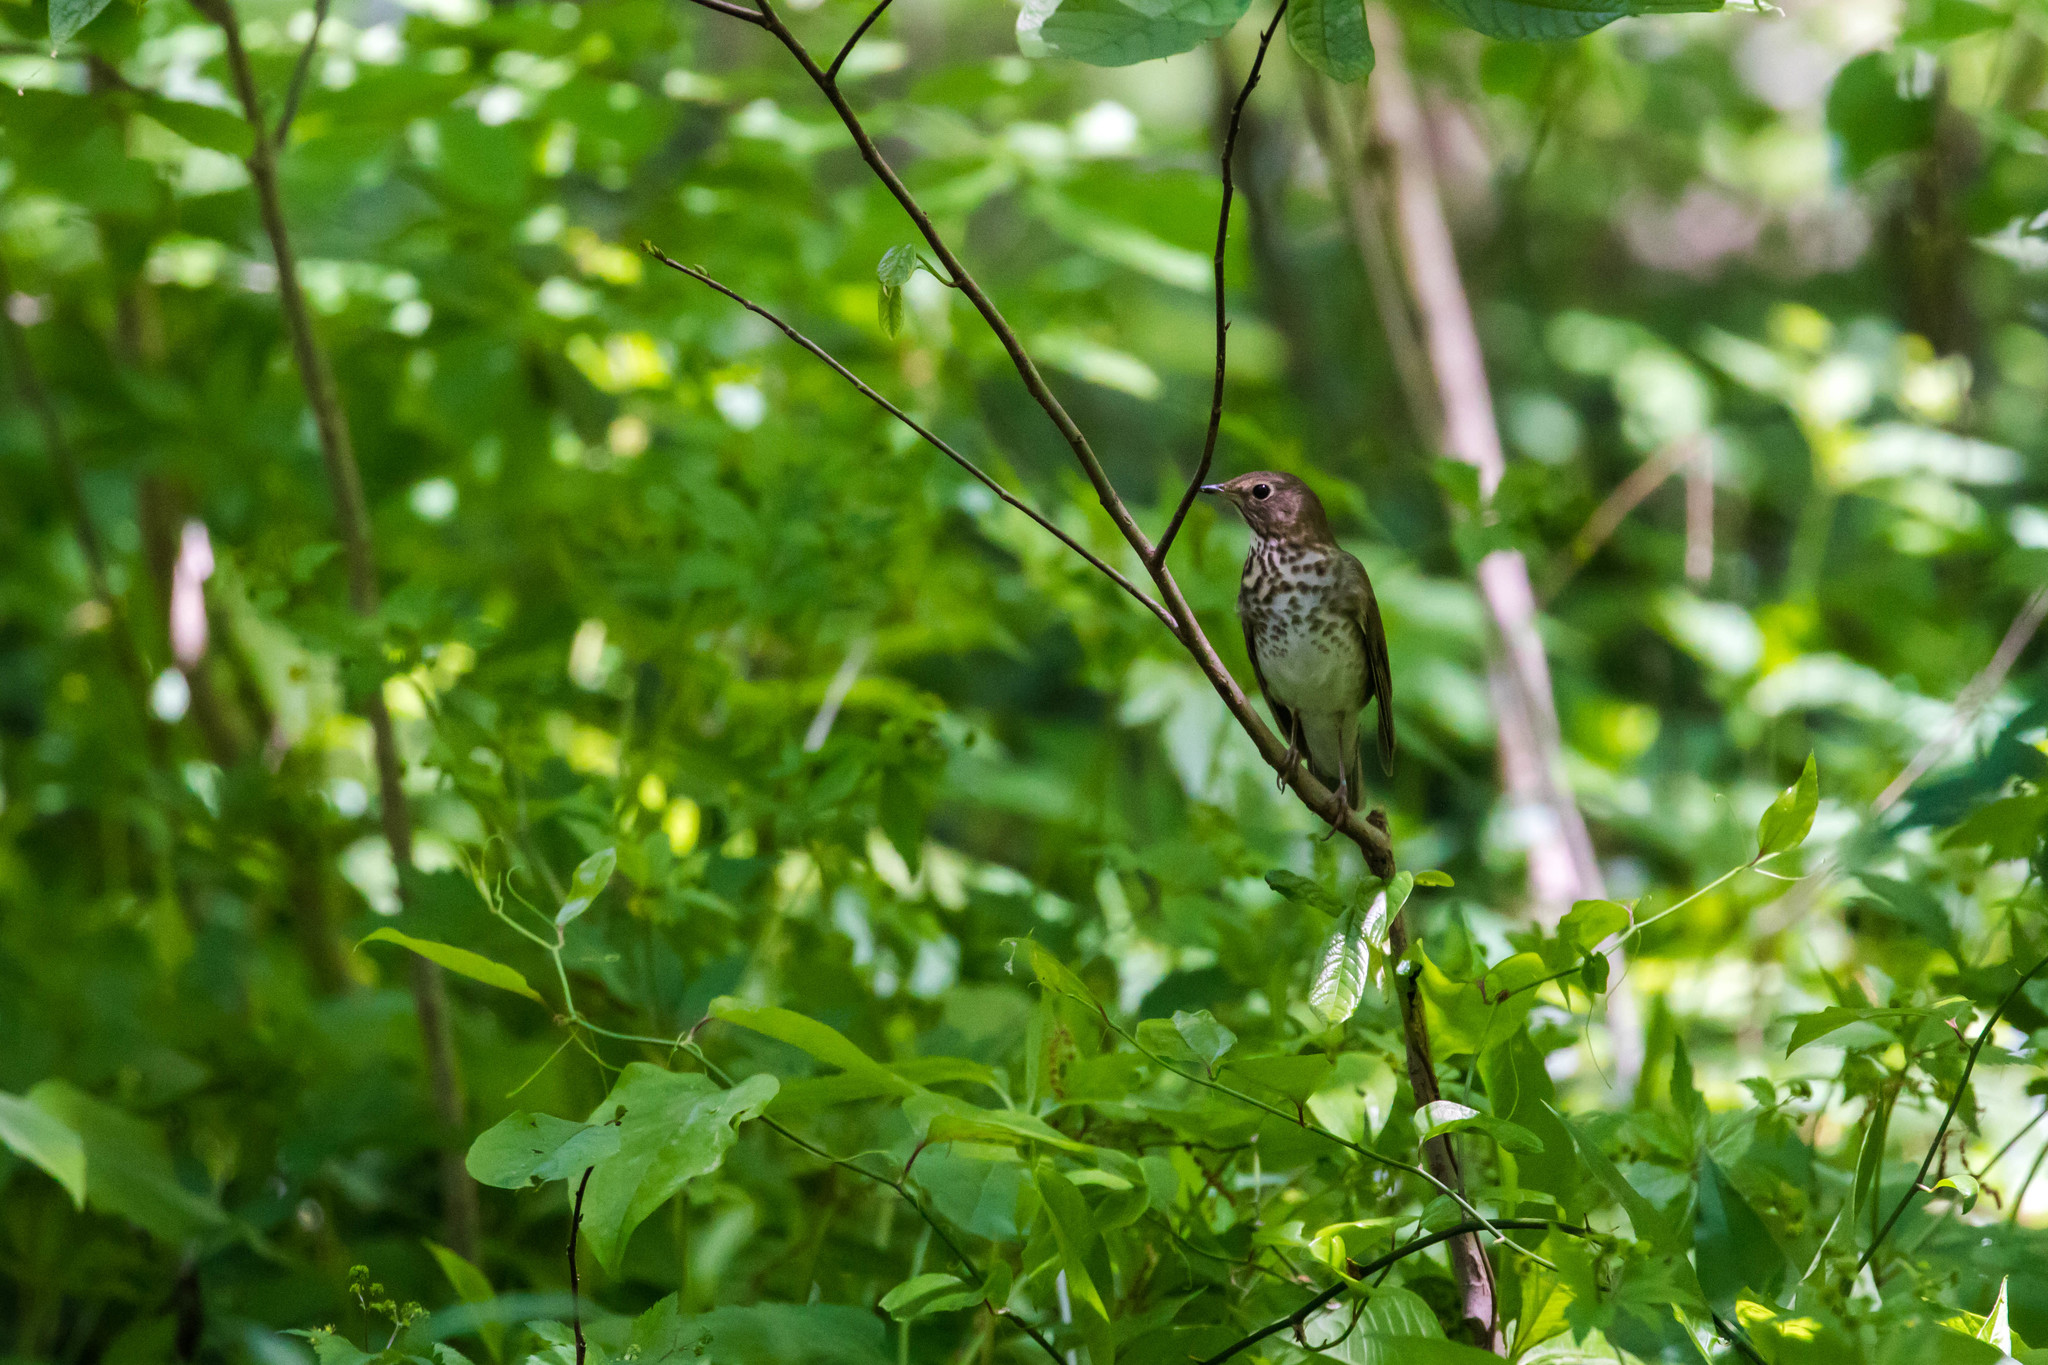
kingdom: Animalia
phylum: Chordata
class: Aves
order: Passeriformes
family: Turdidae
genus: Catharus
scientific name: Catharus ustulatus
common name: Swainson's thrush
